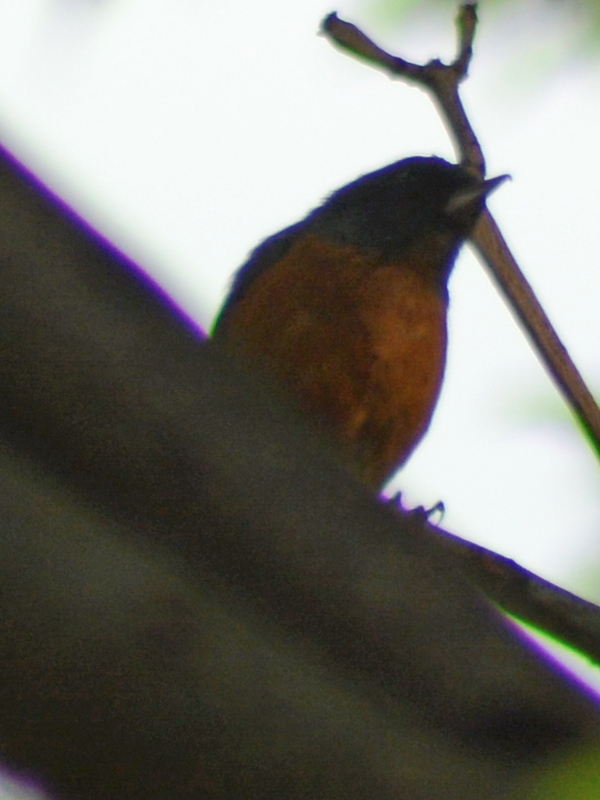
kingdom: Animalia
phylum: Chordata
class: Aves
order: Passeriformes
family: Thraupidae
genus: Diglossa
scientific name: Diglossa baritula
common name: Cinnamon-bellied flowerpiercer
